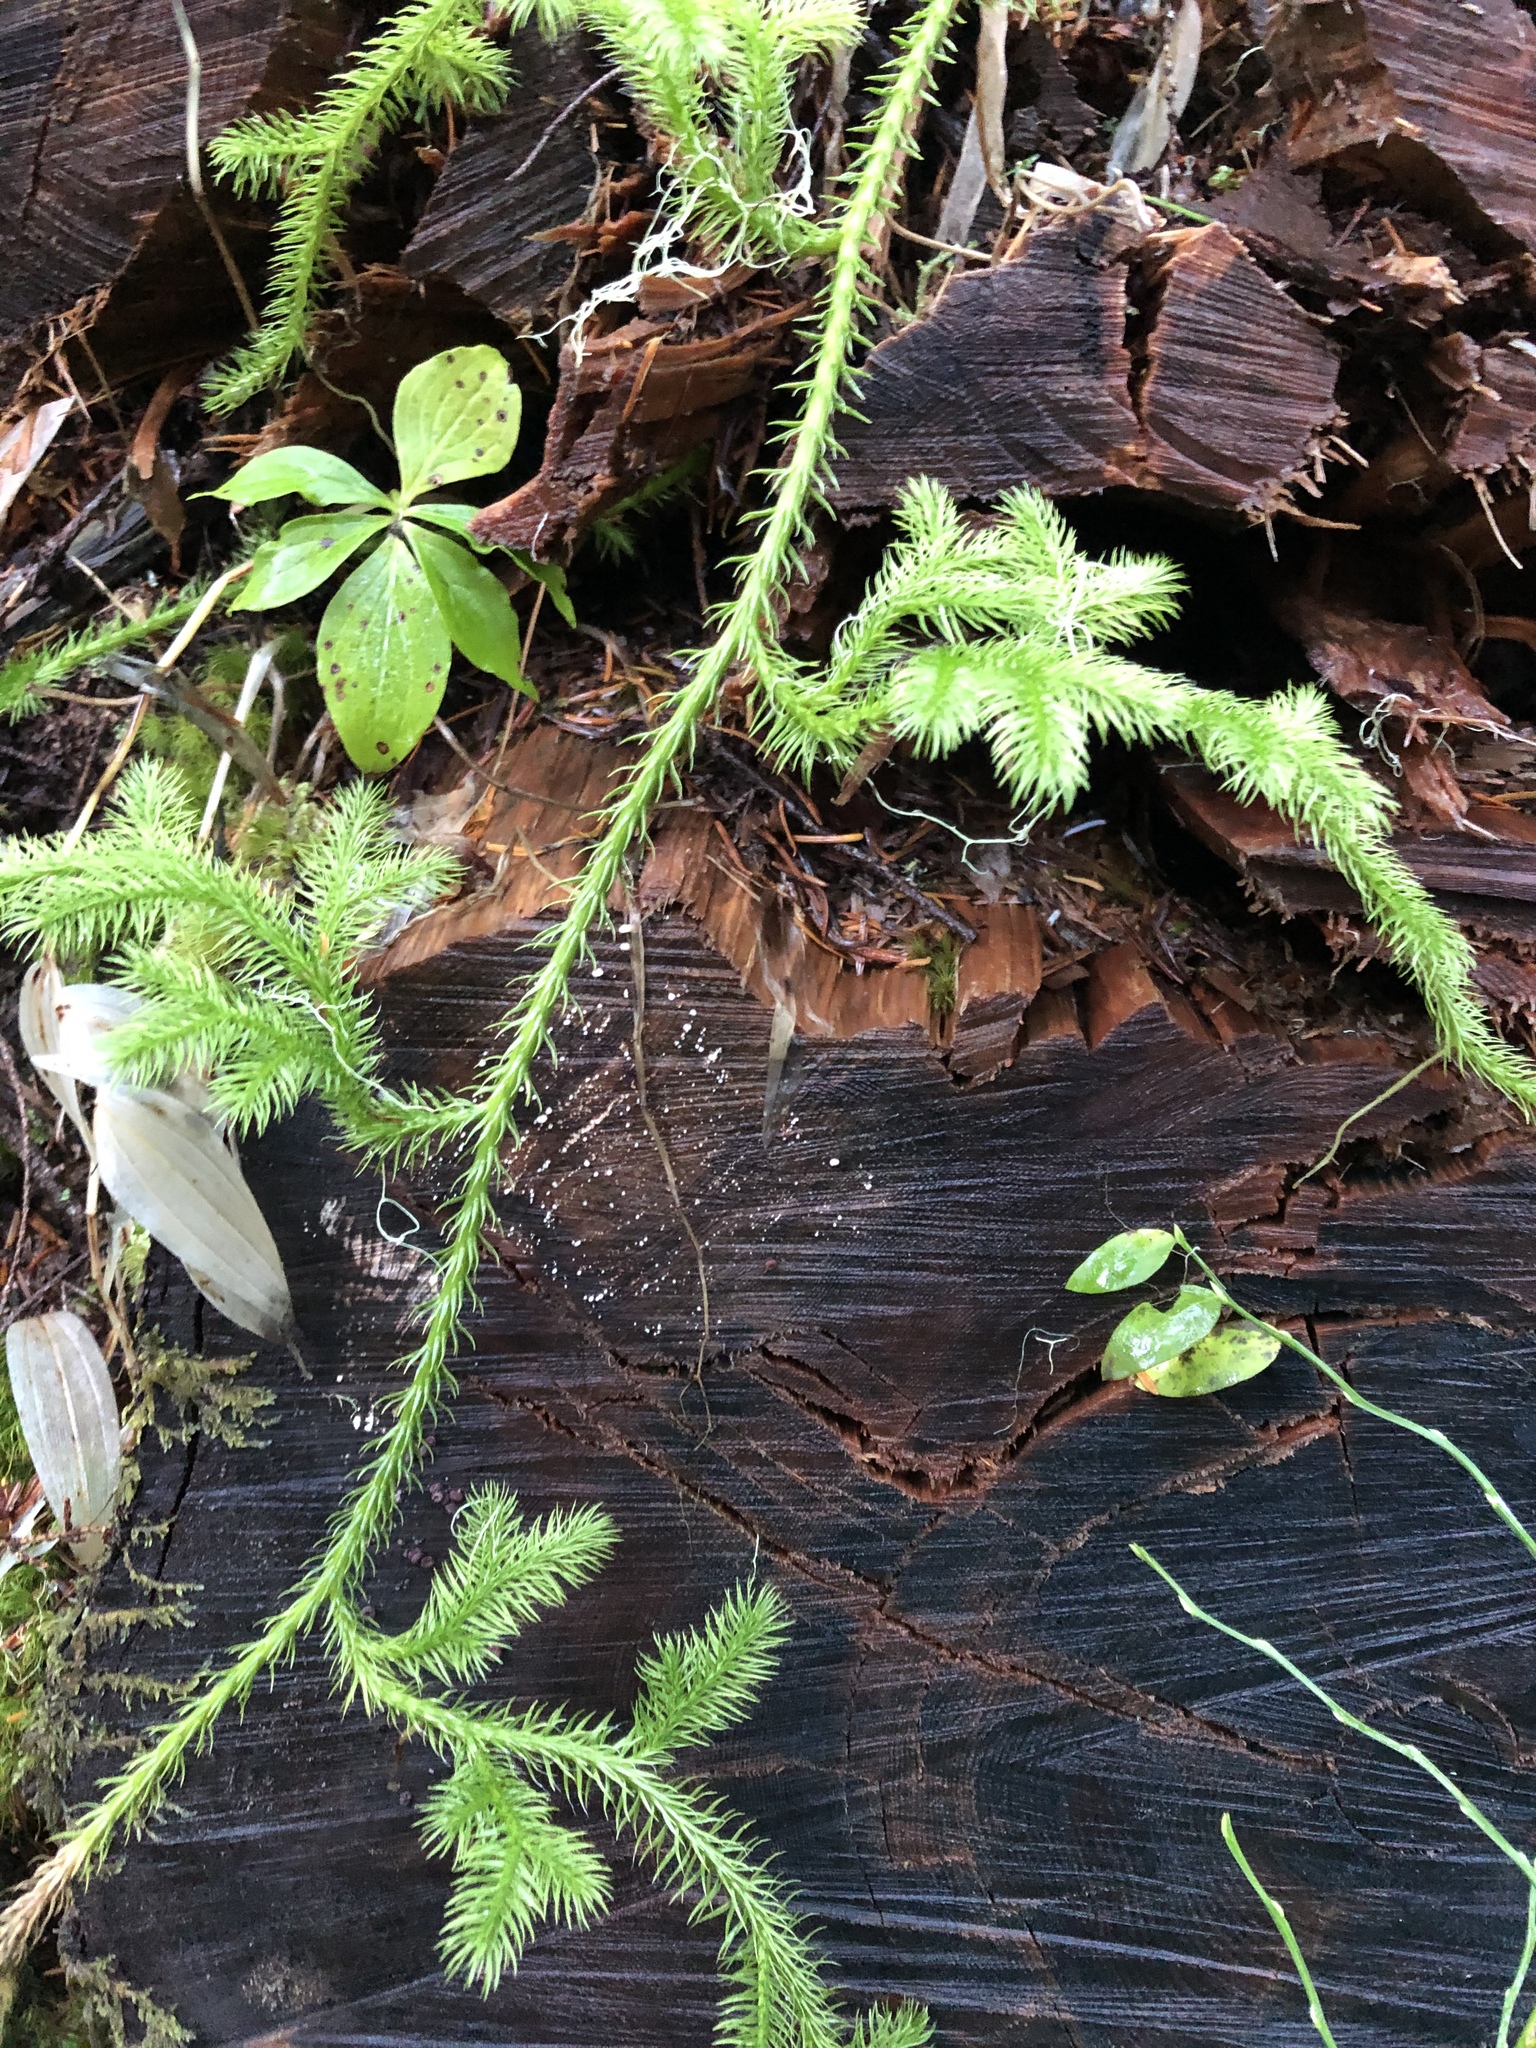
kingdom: Plantae
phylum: Tracheophyta
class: Lycopodiopsida
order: Lycopodiales
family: Lycopodiaceae
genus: Lycopodium
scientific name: Lycopodium clavatum
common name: Stag's-horn clubmoss
